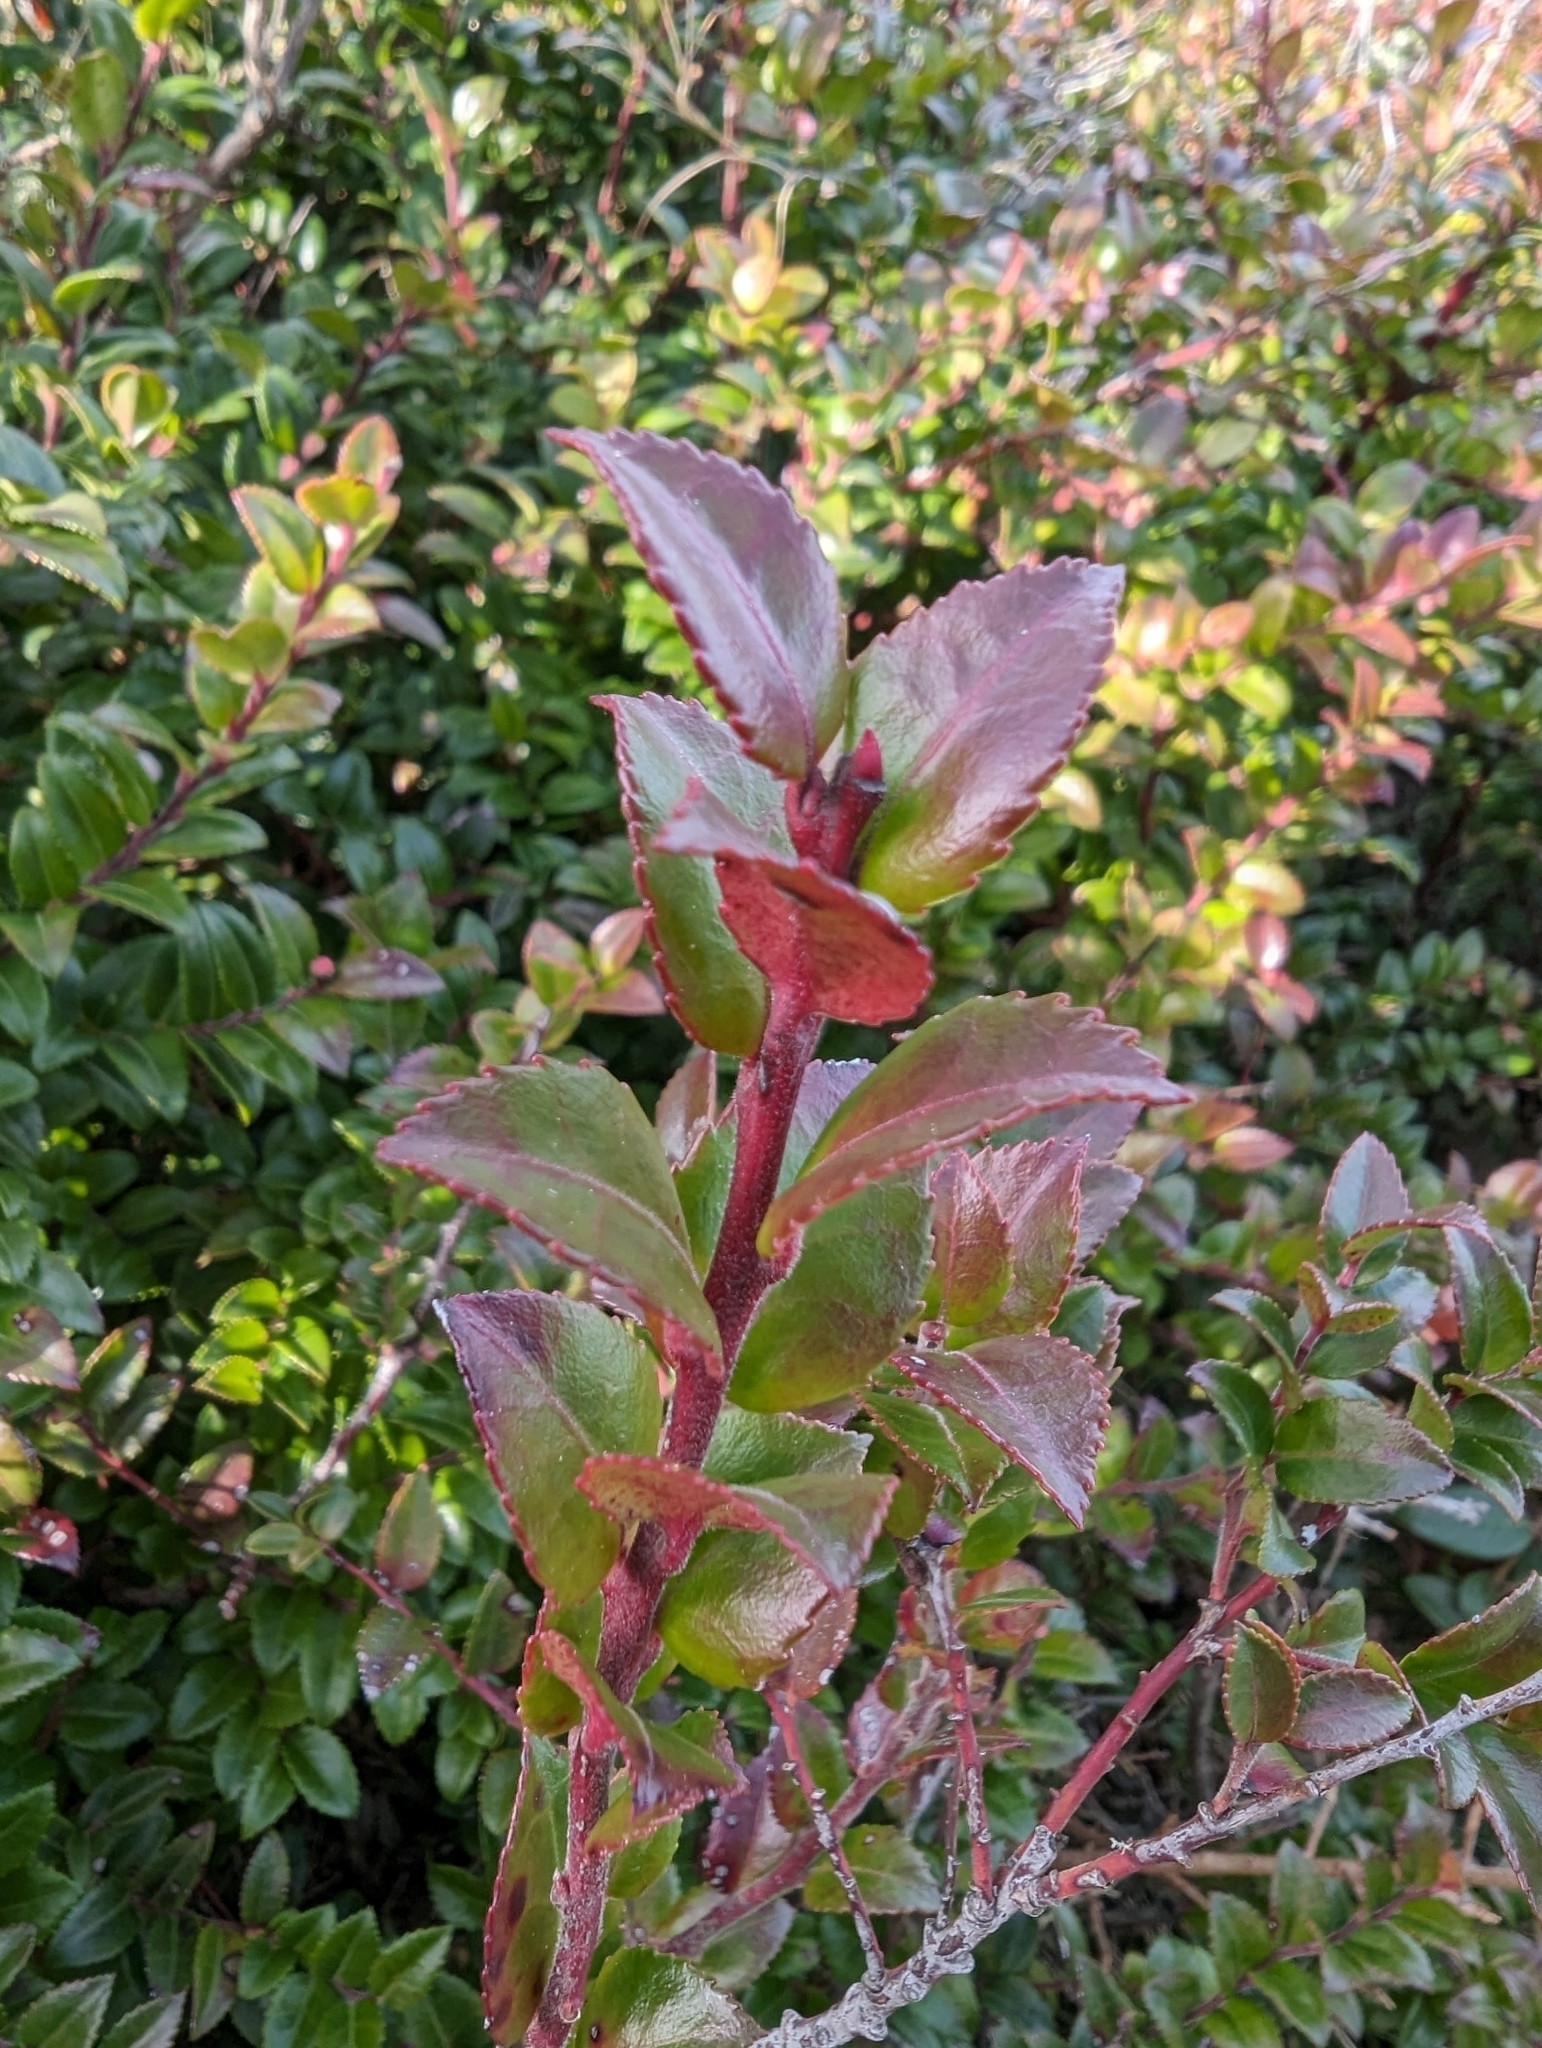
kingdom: Plantae
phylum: Tracheophyta
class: Magnoliopsida
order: Ericales
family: Ericaceae
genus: Vaccinium
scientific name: Vaccinium ovatum
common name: California-huckleberry
